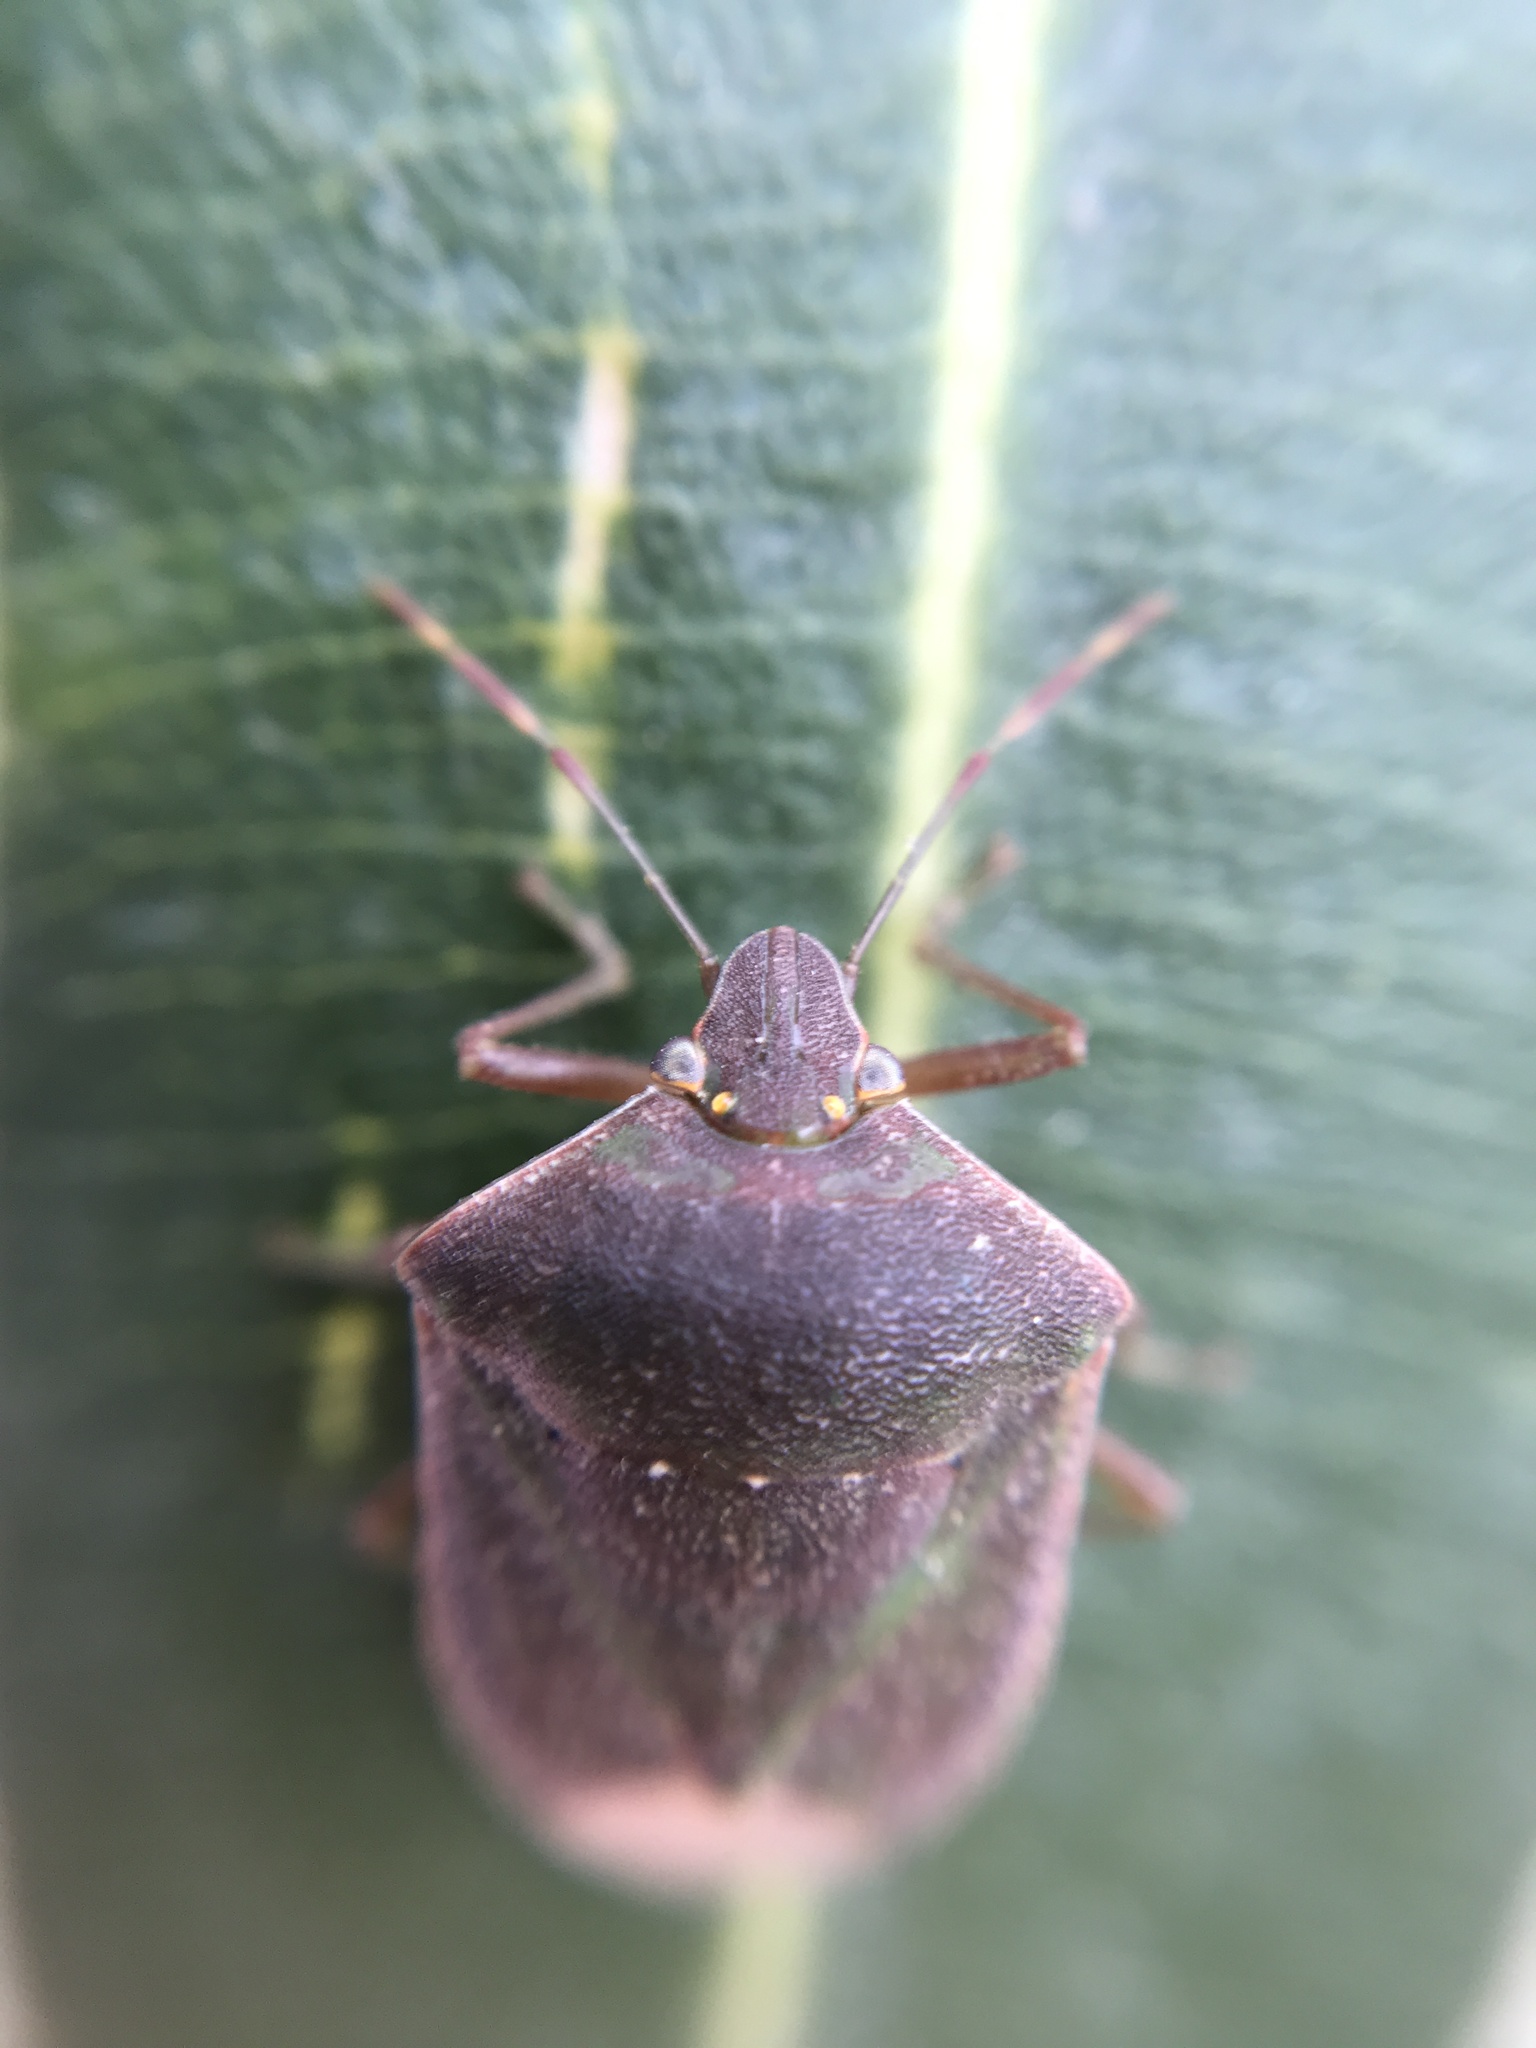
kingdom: Animalia
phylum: Arthropoda
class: Insecta
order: Hemiptera
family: Pentatomidae
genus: Nezara
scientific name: Nezara viridula
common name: Southern green stink bug
